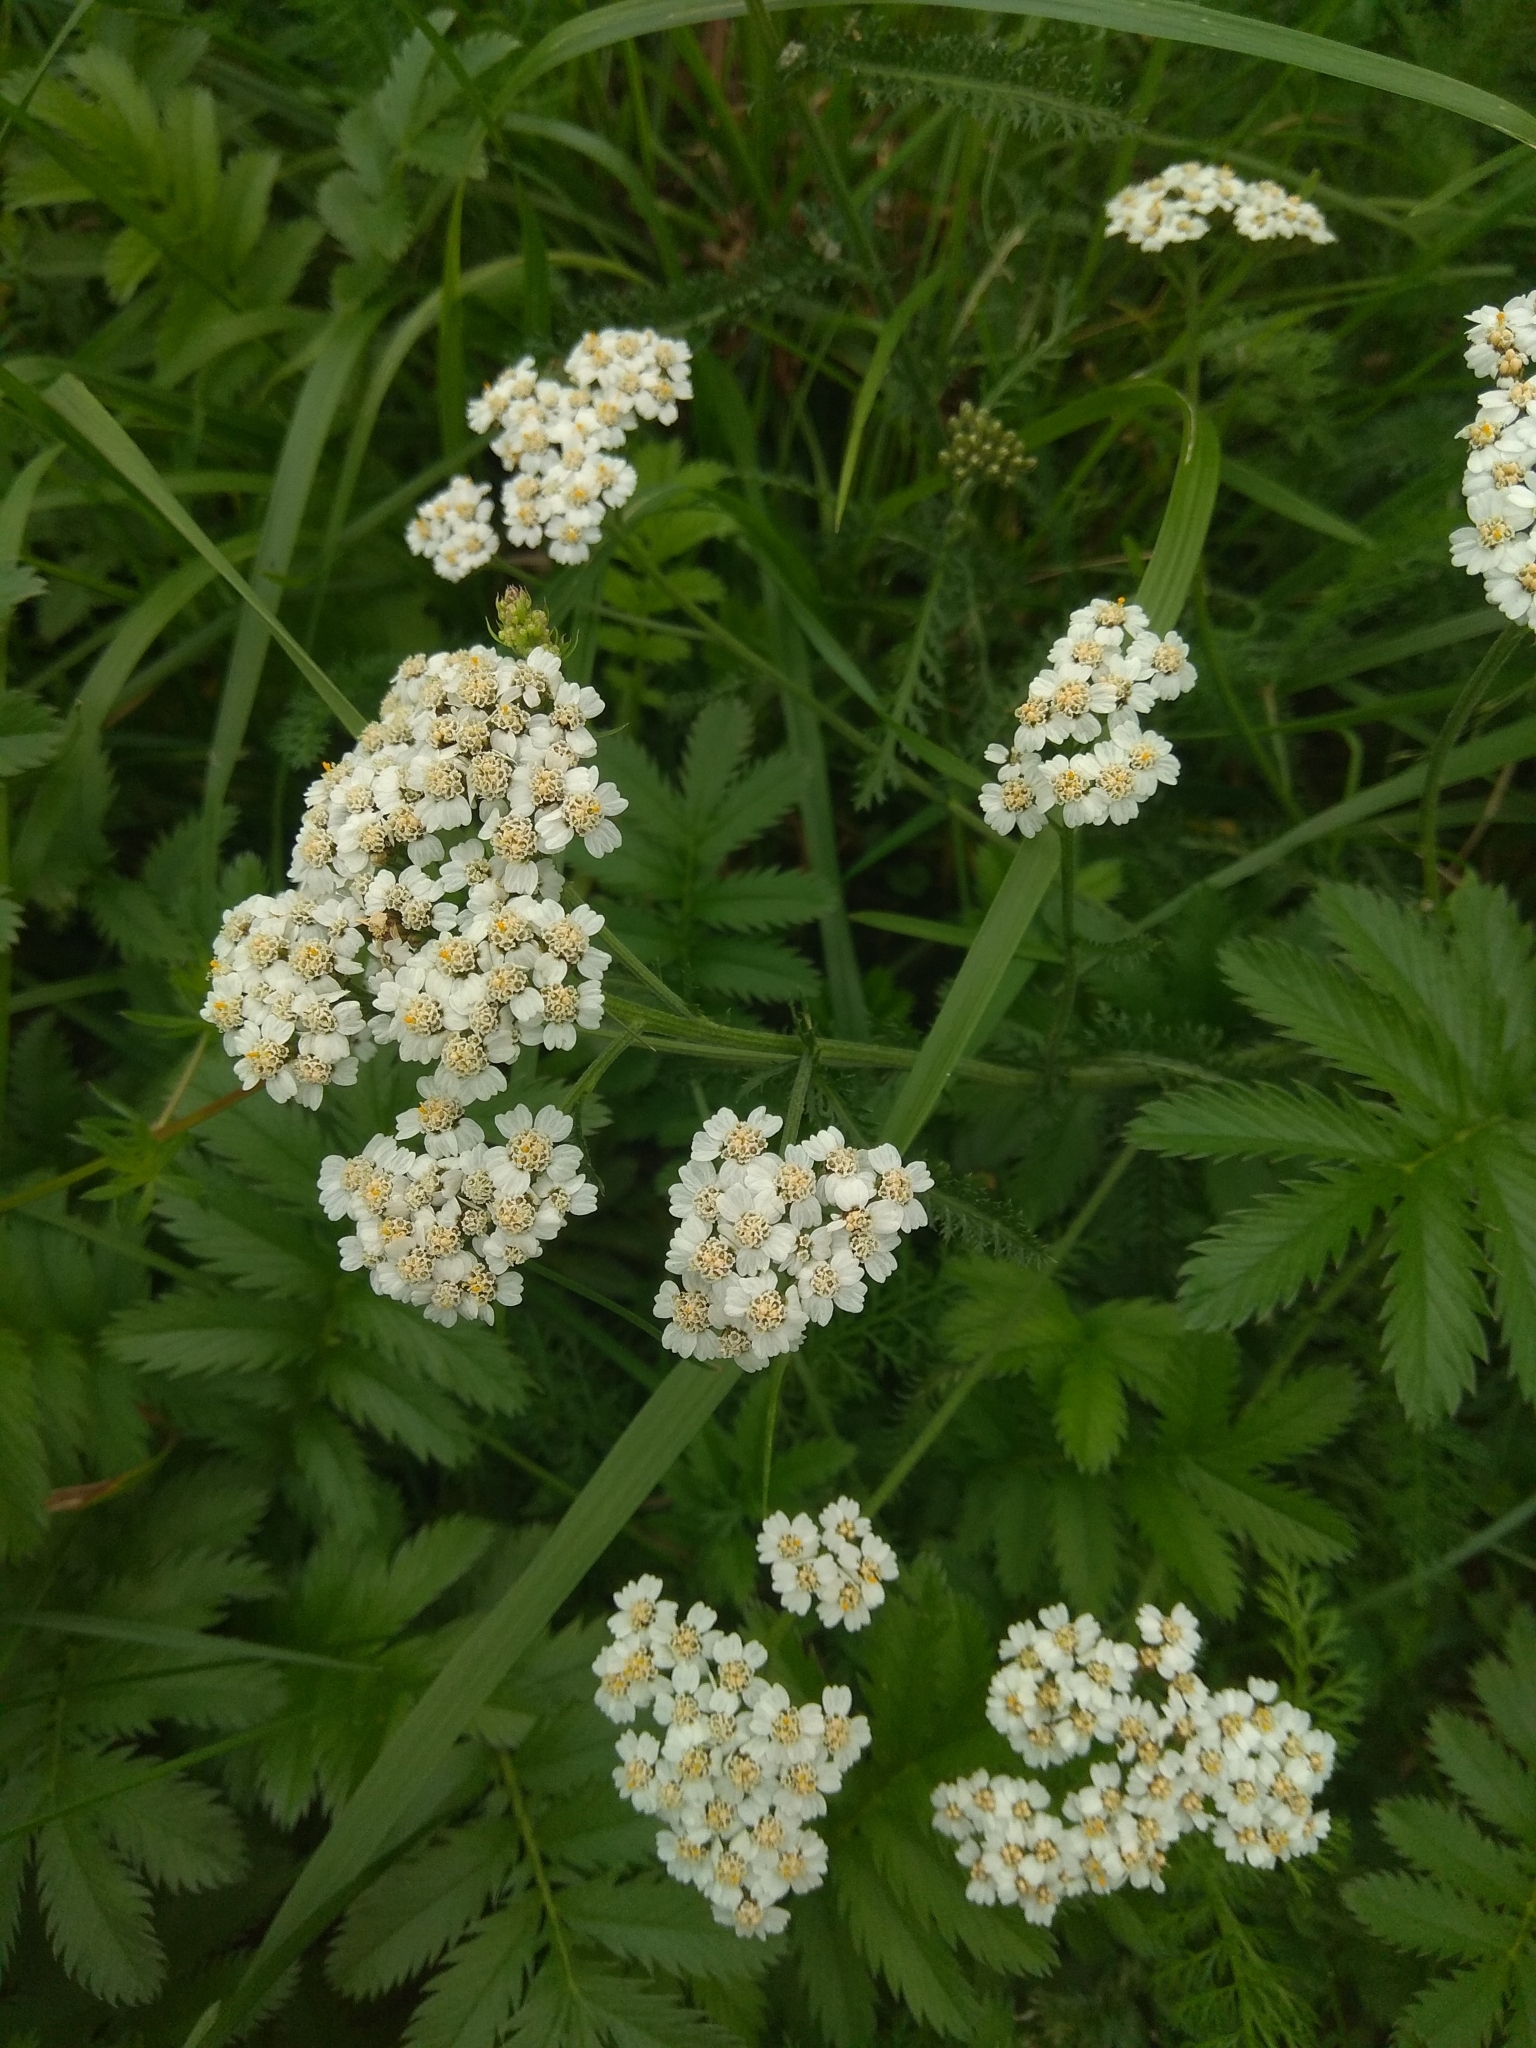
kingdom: Plantae
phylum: Tracheophyta
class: Magnoliopsida
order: Asterales
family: Asteraceae
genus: Achillea
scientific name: Achillea millefolium
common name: Yarrow
